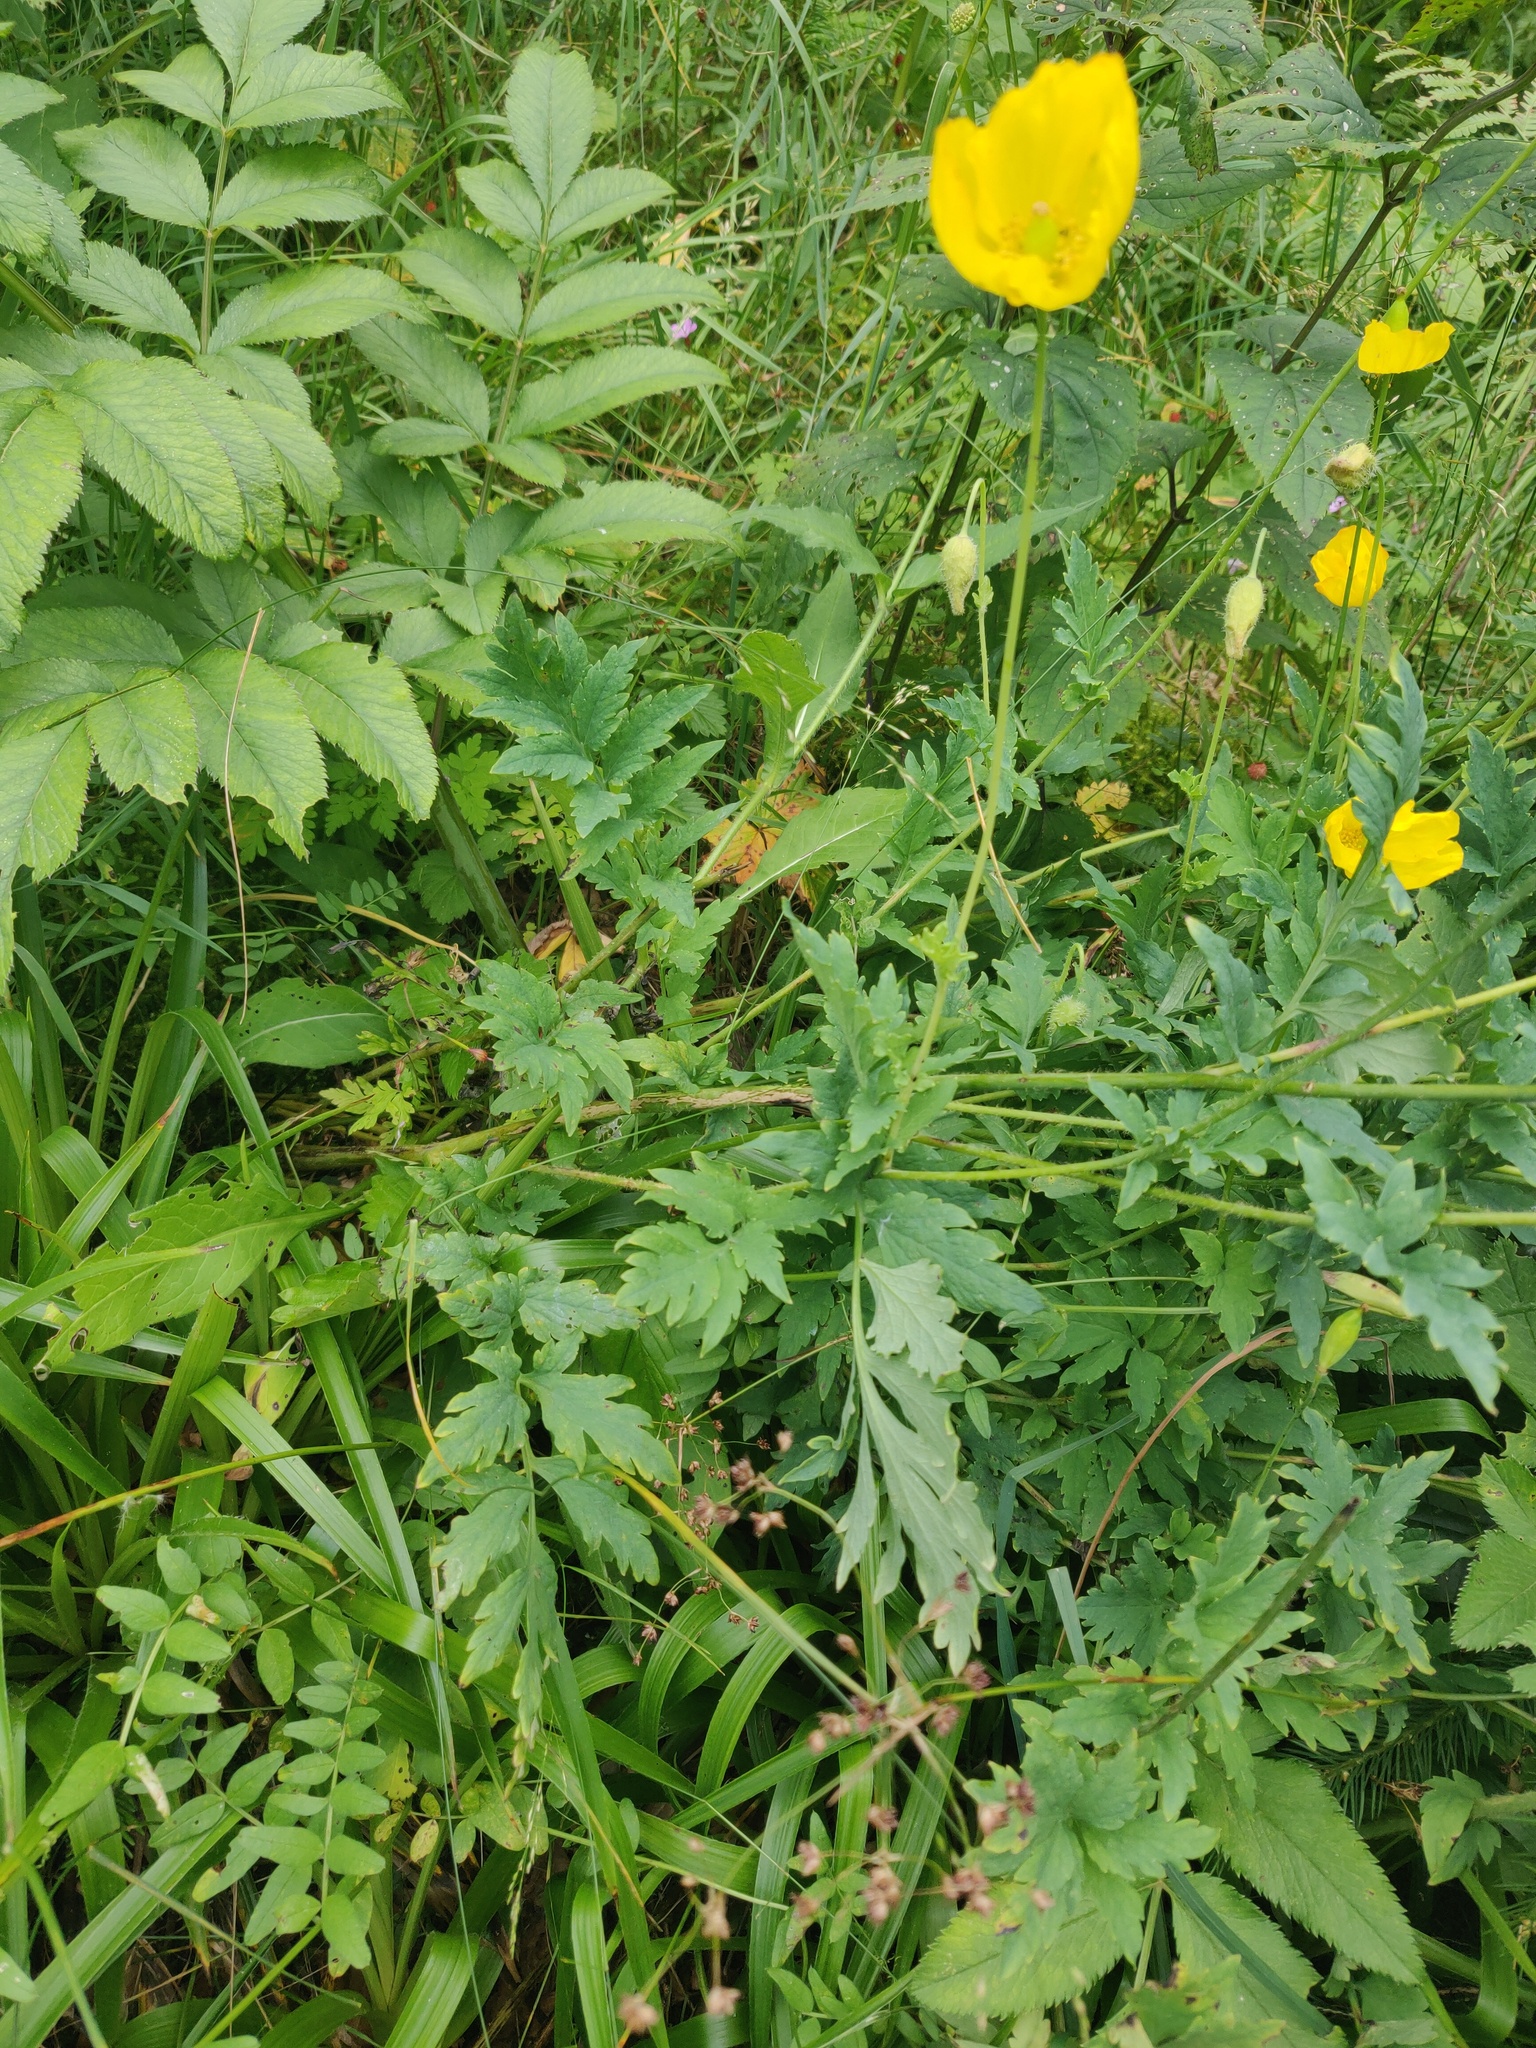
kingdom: Plantae
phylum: Tracheophyta
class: Magnoliopsida
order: Ranunculales
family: Papaveraceae
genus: Papaver
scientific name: Papaver cambricum
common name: Poppy
